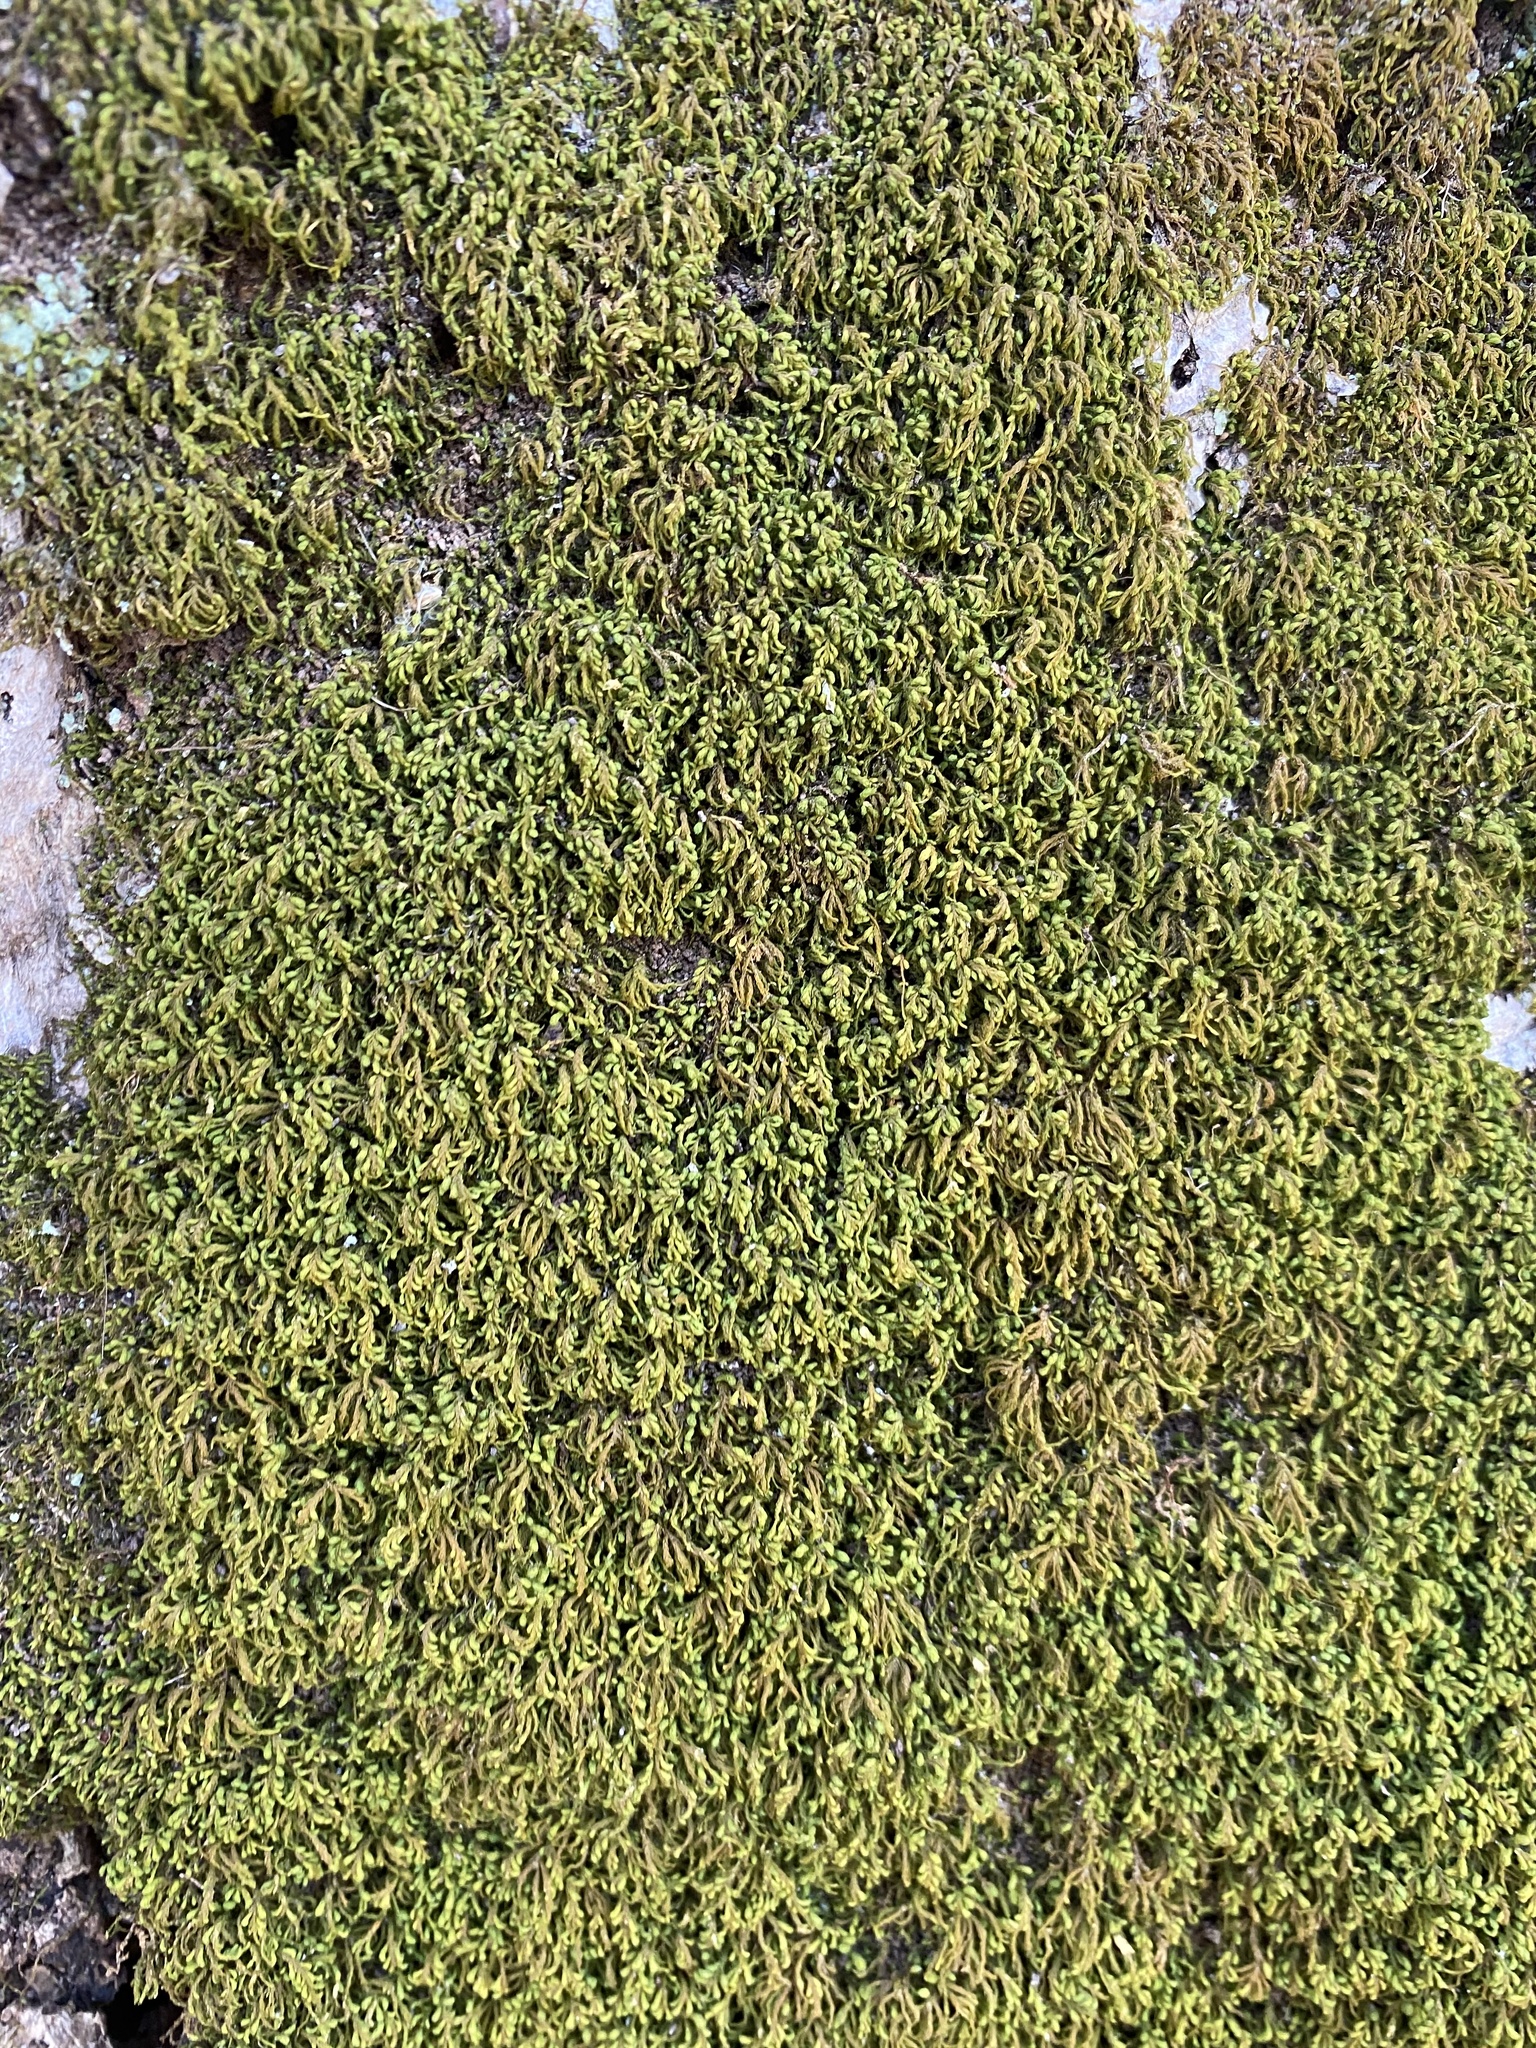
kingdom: Plantae
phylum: Bryophyta
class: Bryopsida
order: Hypnales
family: Neckeraceae
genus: Pseudanomodon
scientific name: Pseudanomodon attenuatus
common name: Tree-skirt moss
